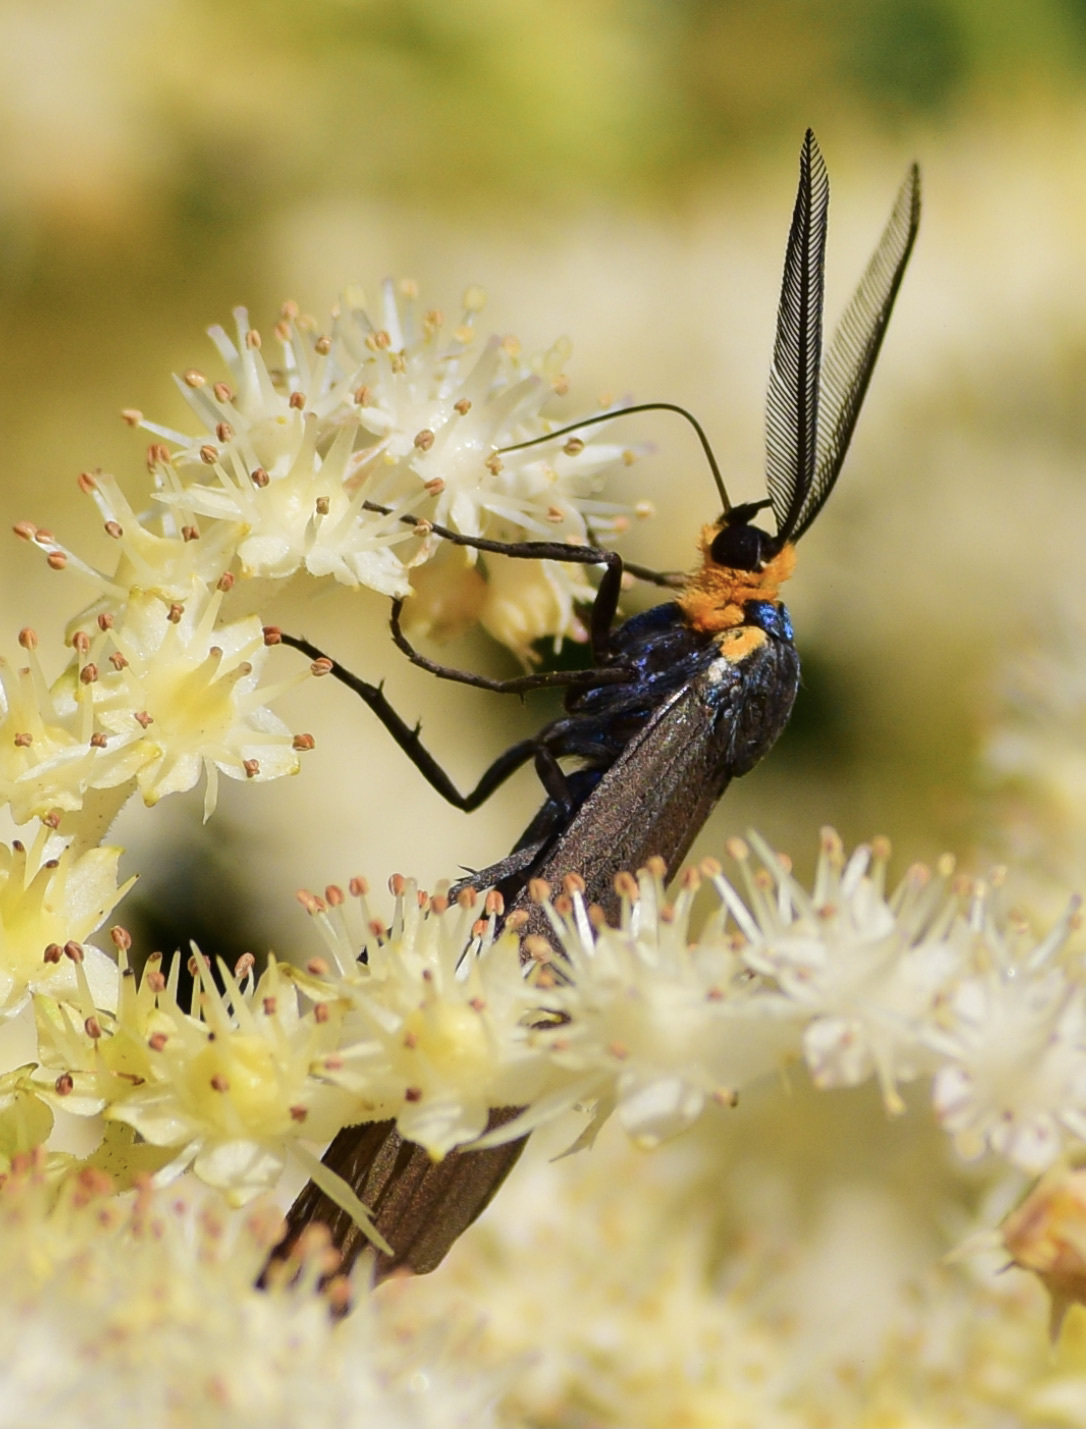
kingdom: Animalia
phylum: Arthropoda
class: Insecta
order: Lepidoptera
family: Erebidae
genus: Ctenucha
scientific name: Ctenucha virginica
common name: Virginia ctenucha moth
